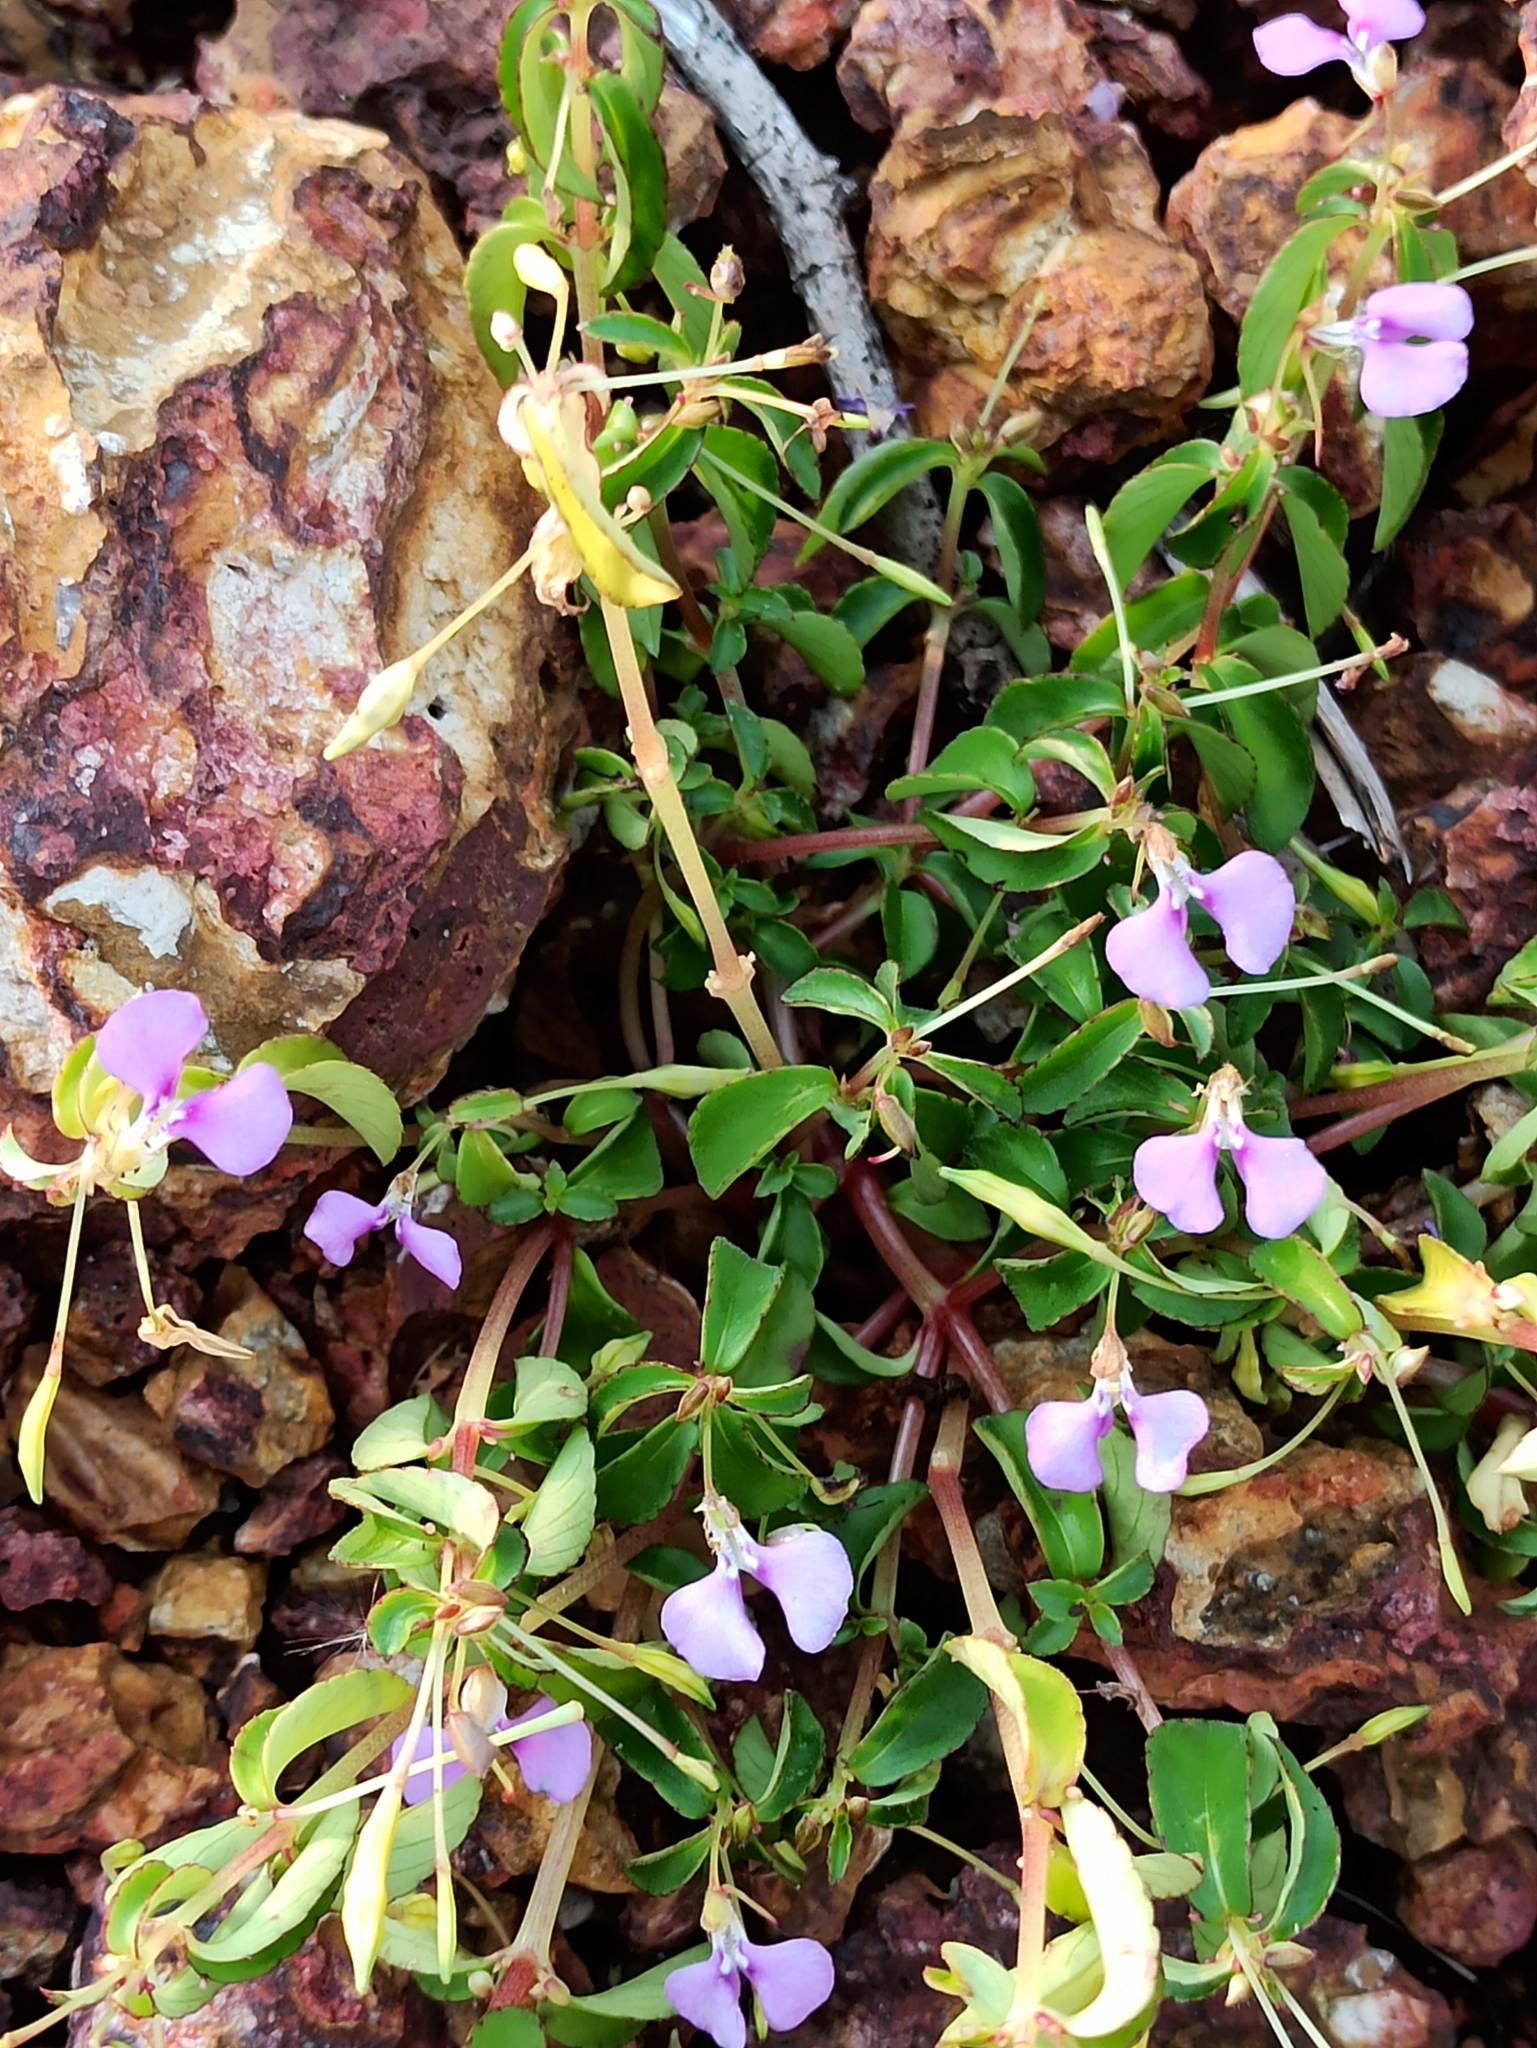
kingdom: Plantae
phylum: Tracheophyta
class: Magnoliopsida
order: Ericales
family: Balsaminaceae
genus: Impatiens
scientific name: Impatiens minor
